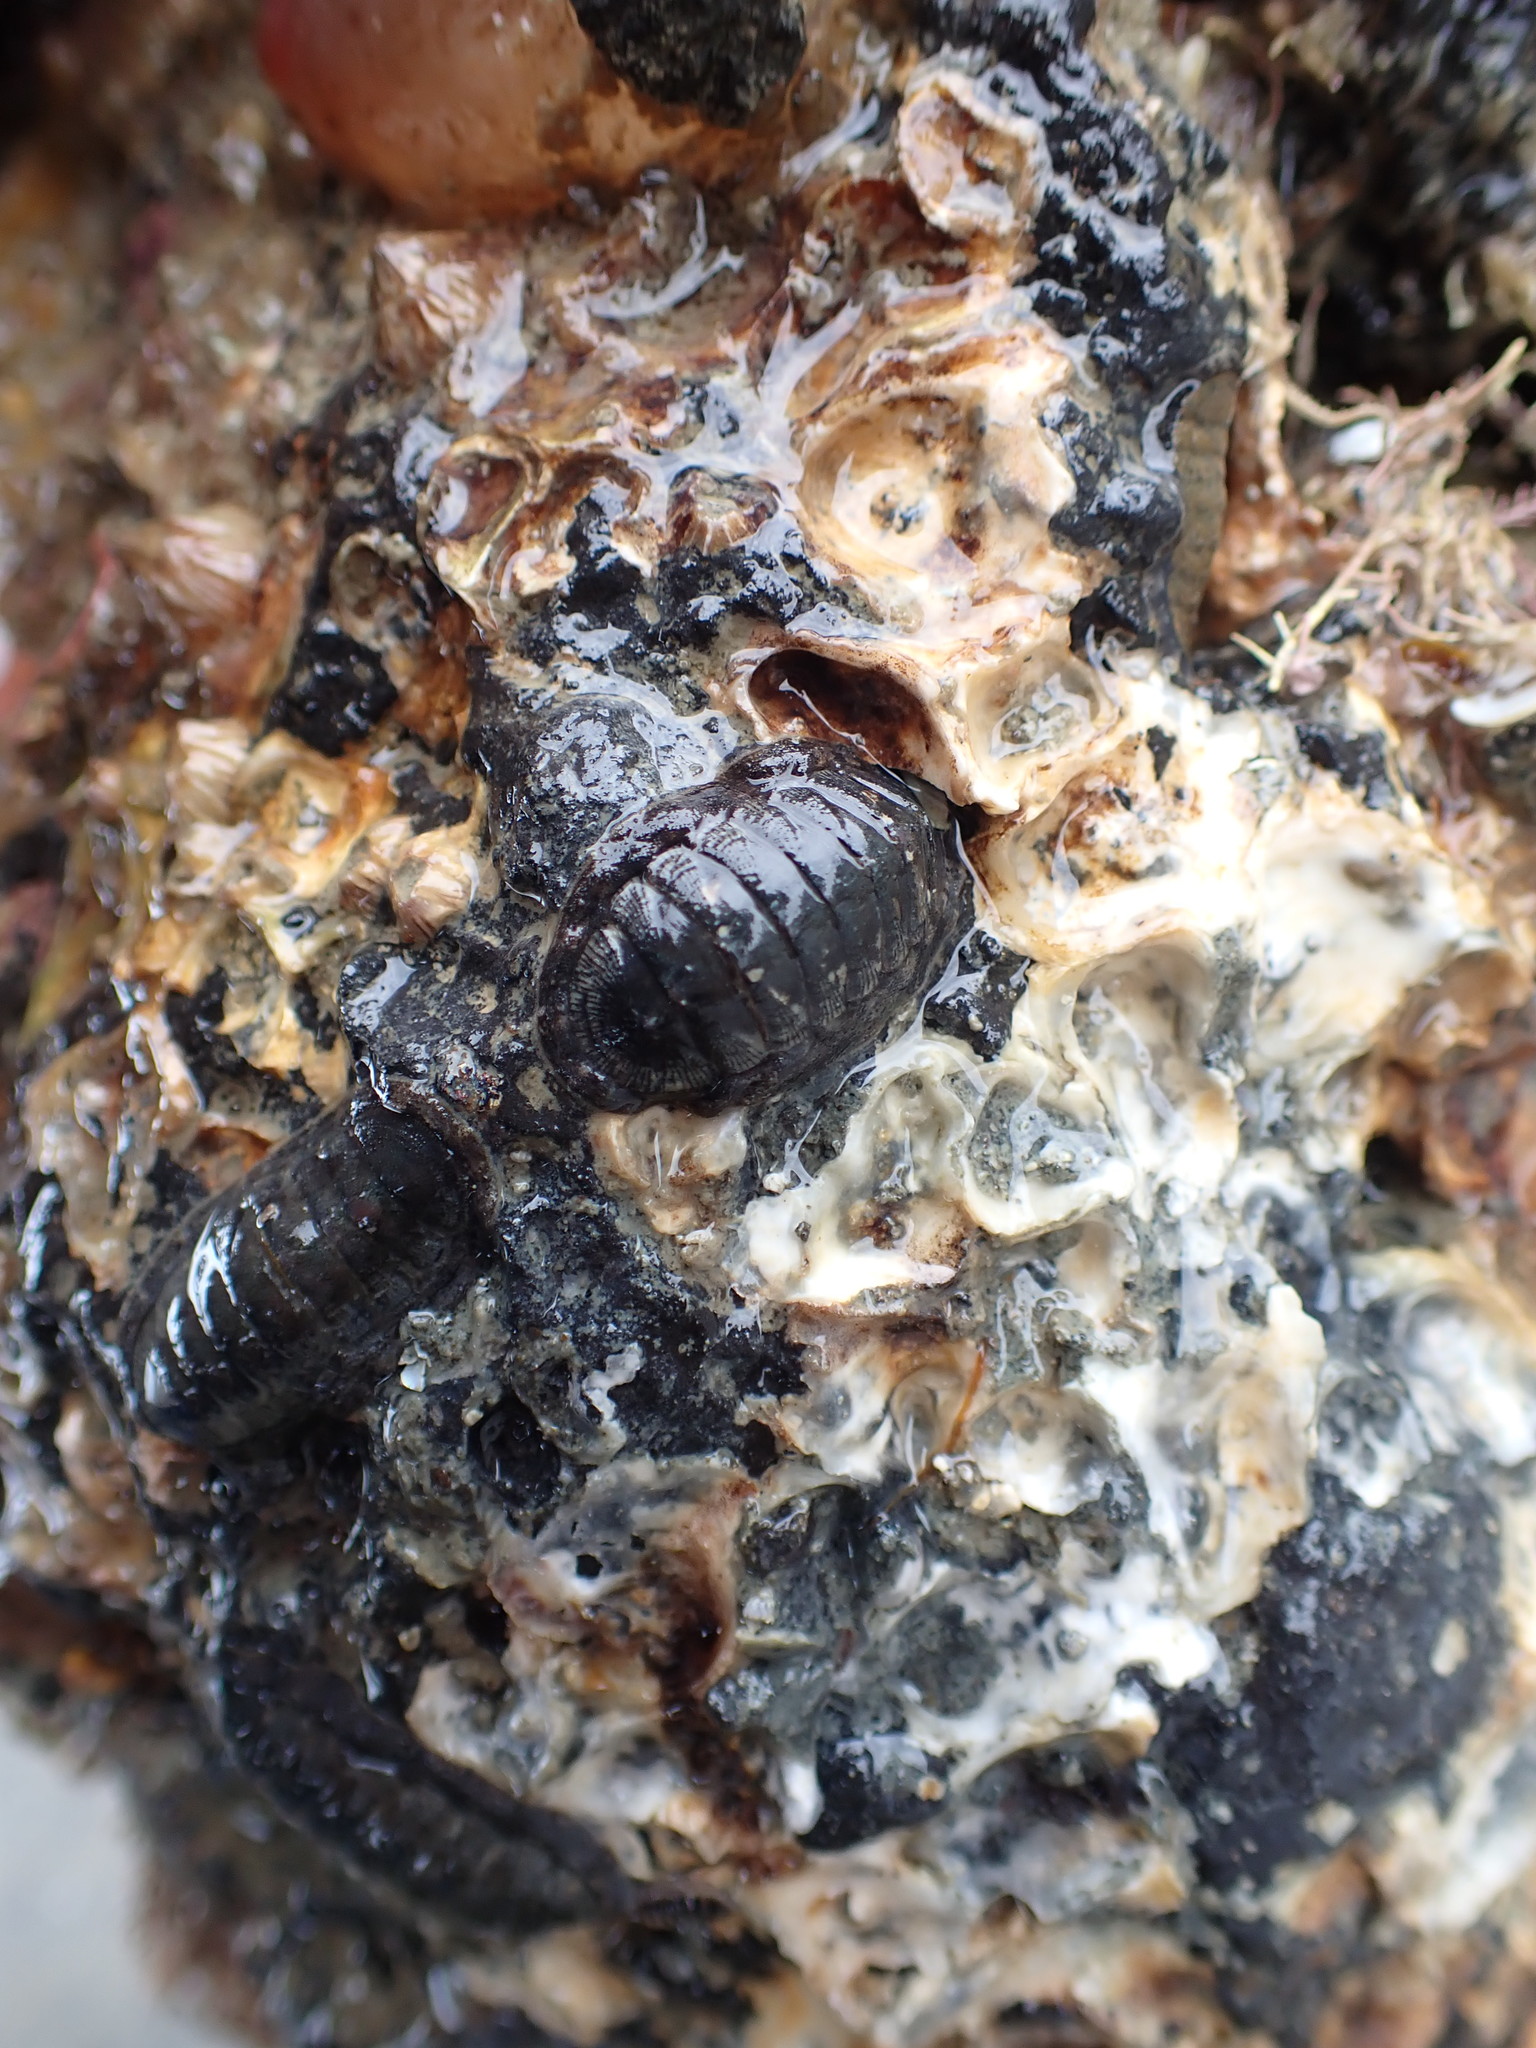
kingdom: Animalia
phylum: Mollusca
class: Polyplacophora
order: Chitonida
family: Ischnochitonidae
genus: Ischnochiton
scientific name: Ischnochiton maorianus
